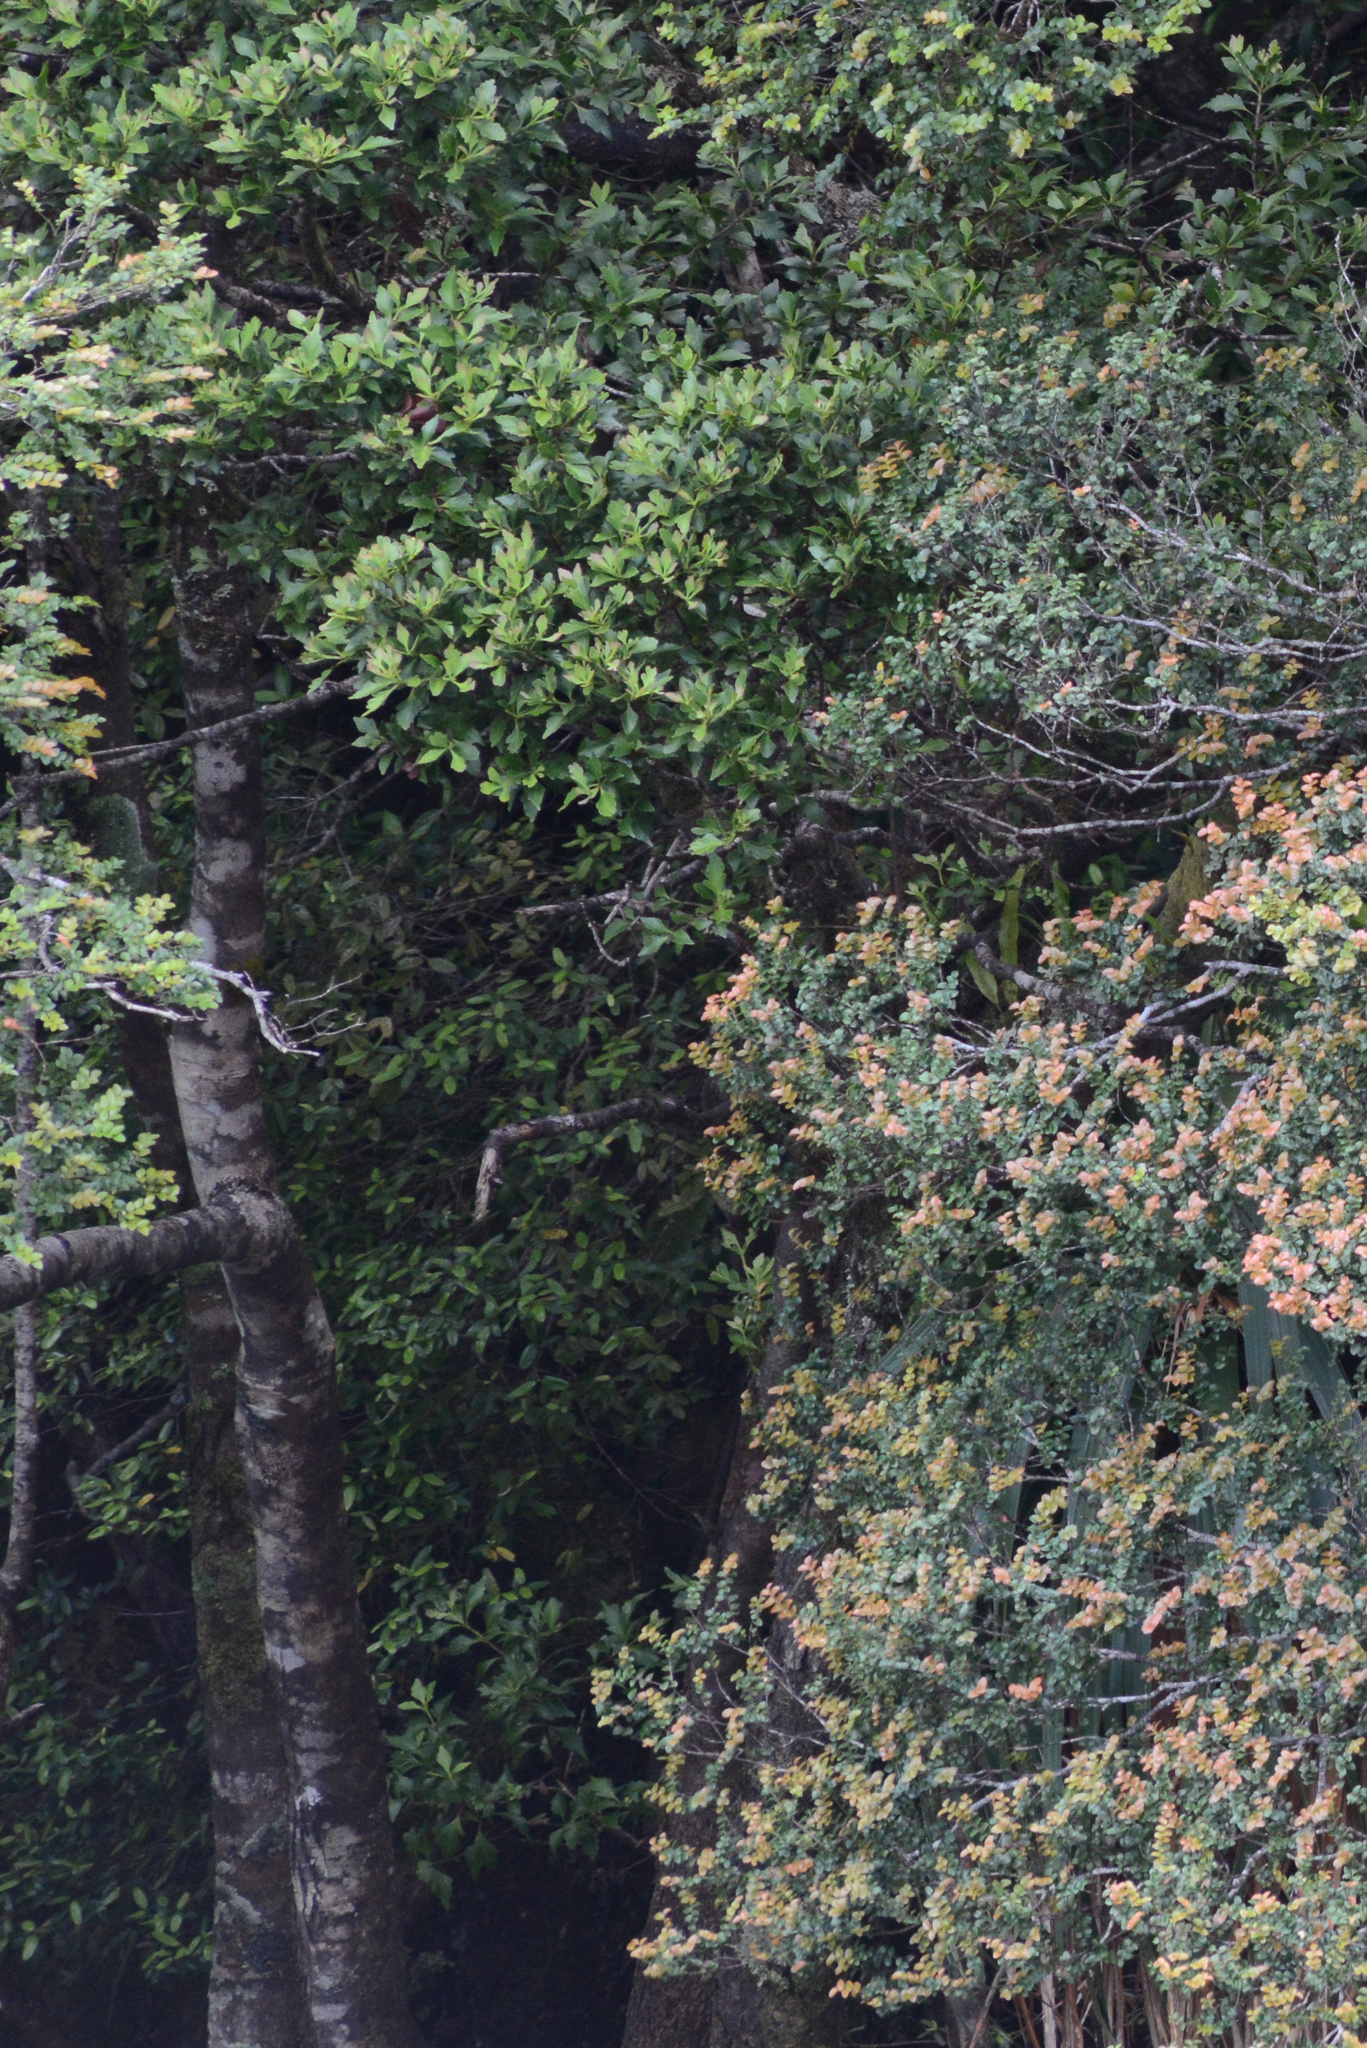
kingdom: Plantae
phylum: Tracheophyta
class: Pinopsida
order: Pinales
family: Phyllocladaceae
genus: Phyllocladus
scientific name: Phyllocladus aspleniifolius
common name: Celery-top pine
